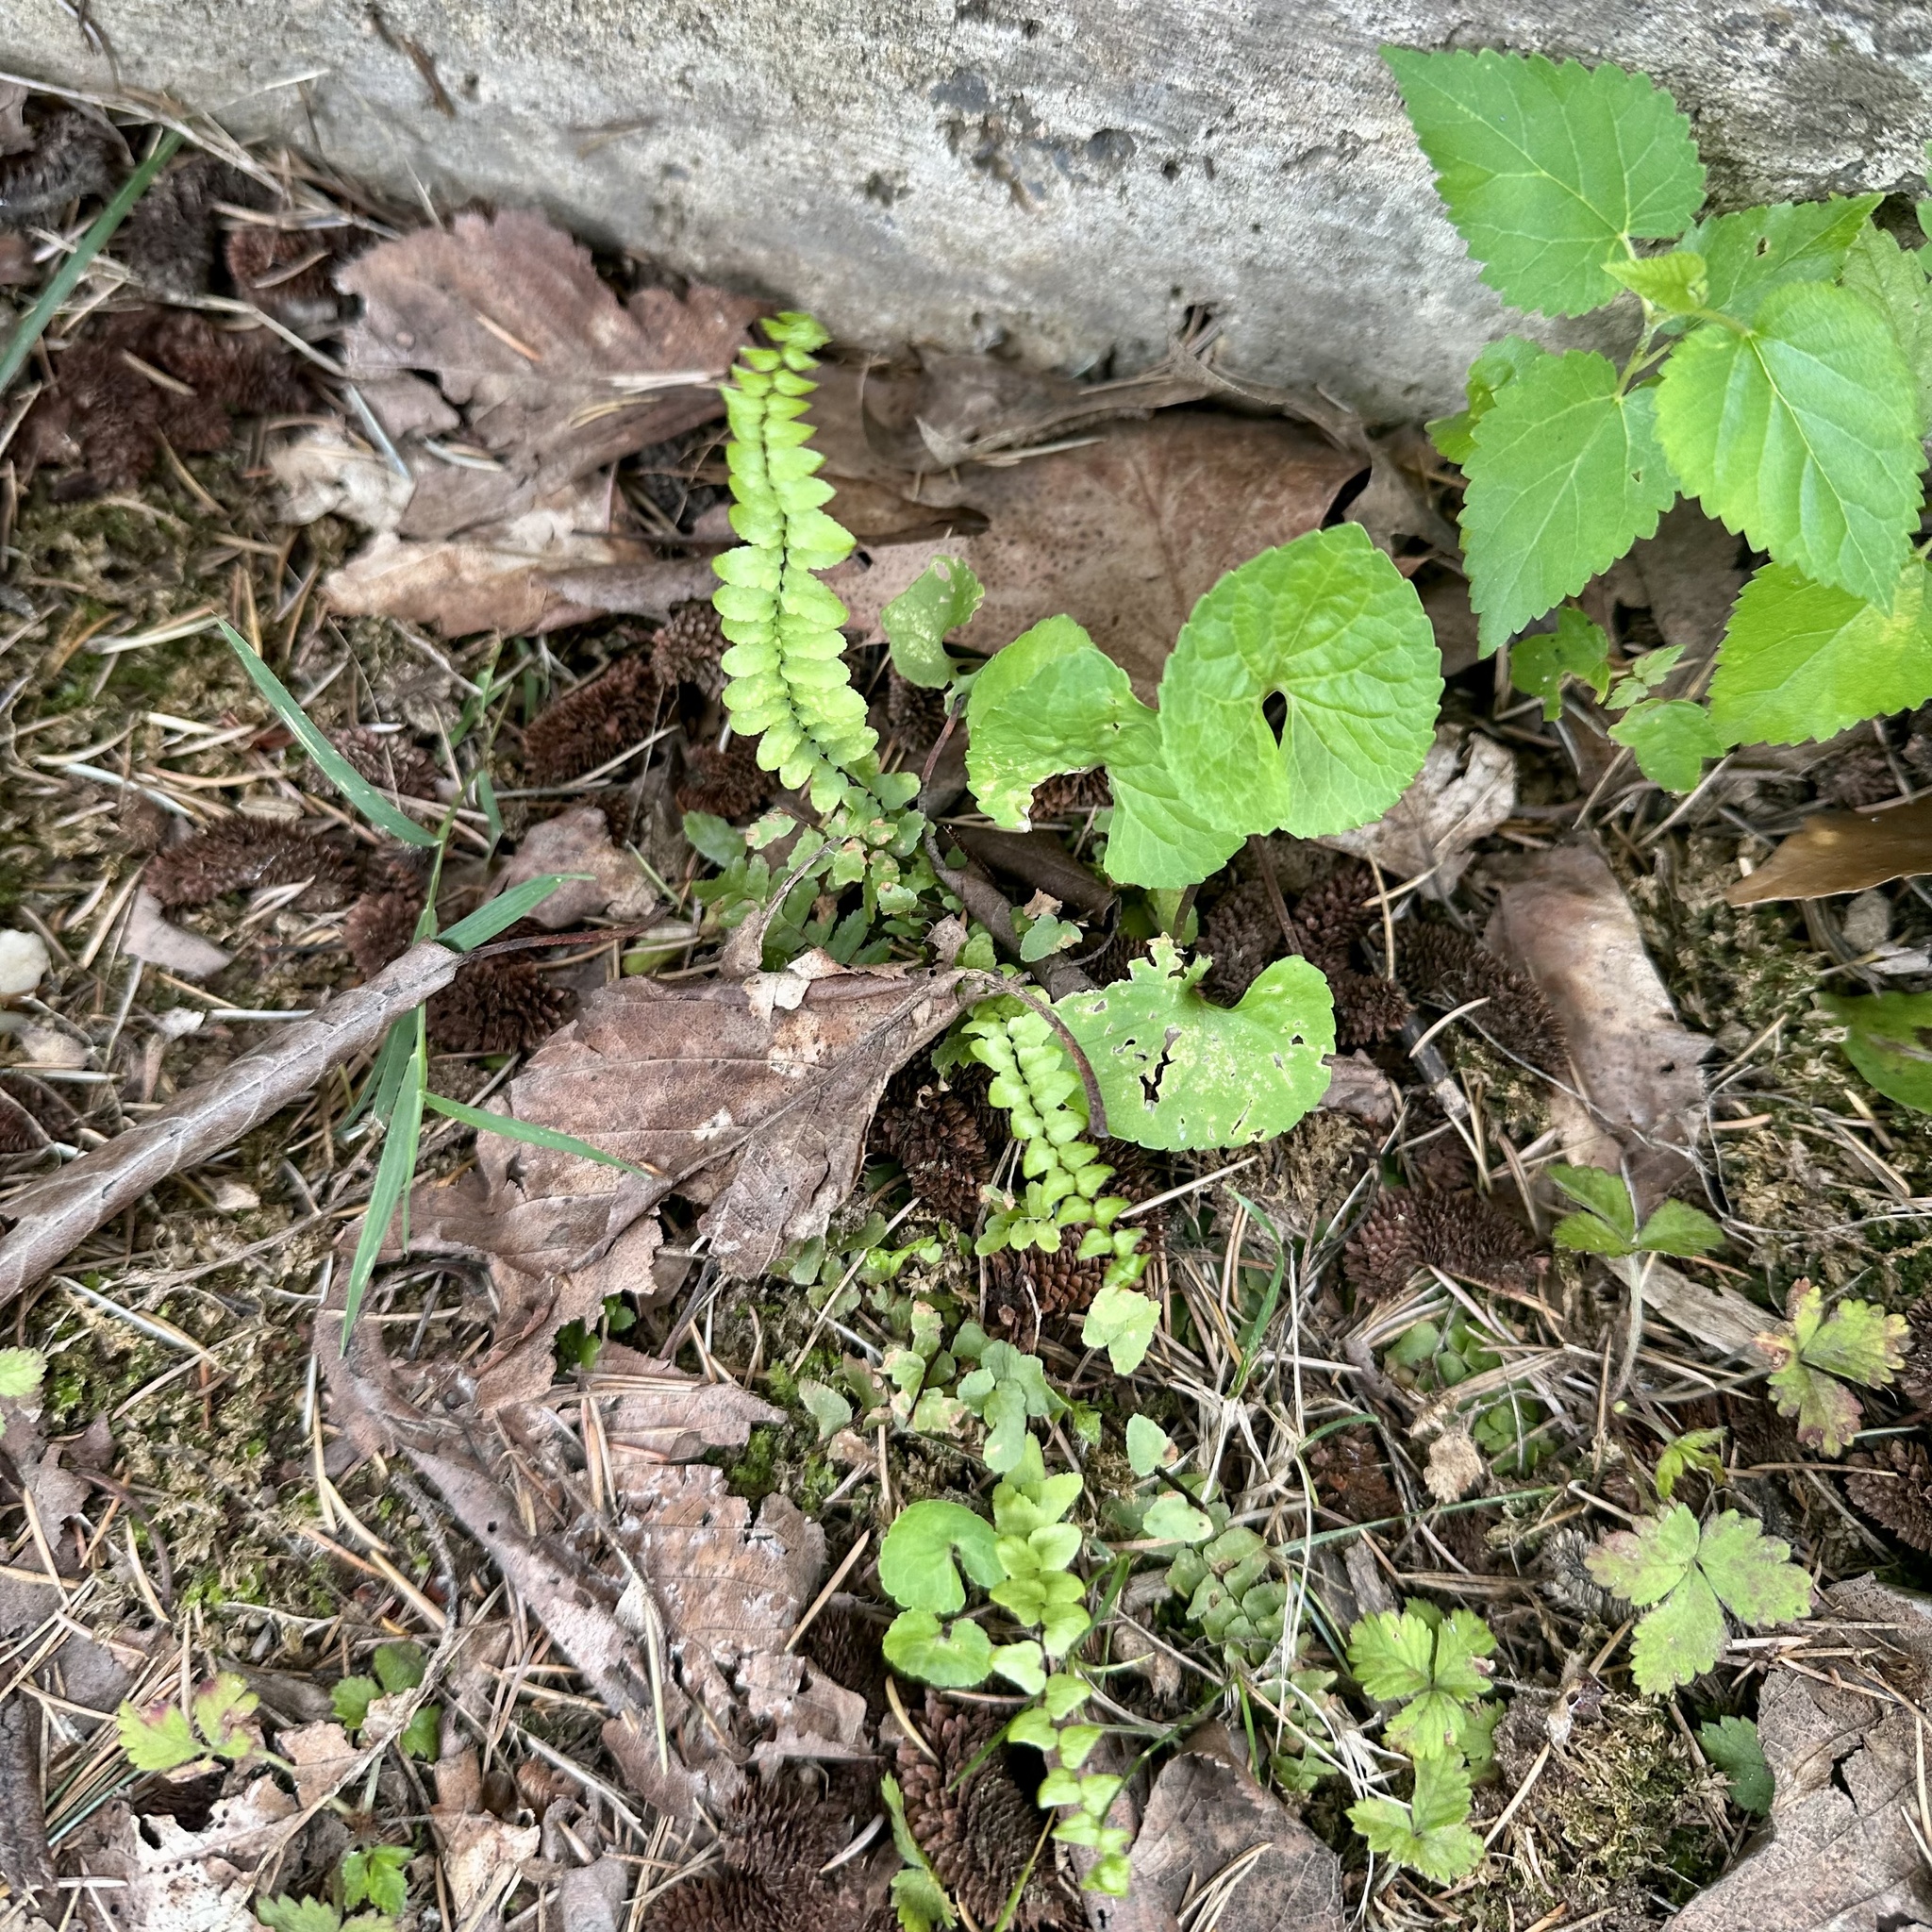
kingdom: Plantae
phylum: Tracheophyta
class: Polypodiopsida
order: Polypodiales
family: Aspleniaceae
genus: Asplenium
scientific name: Asplenium platyneuron
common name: Ebony spleenwort
